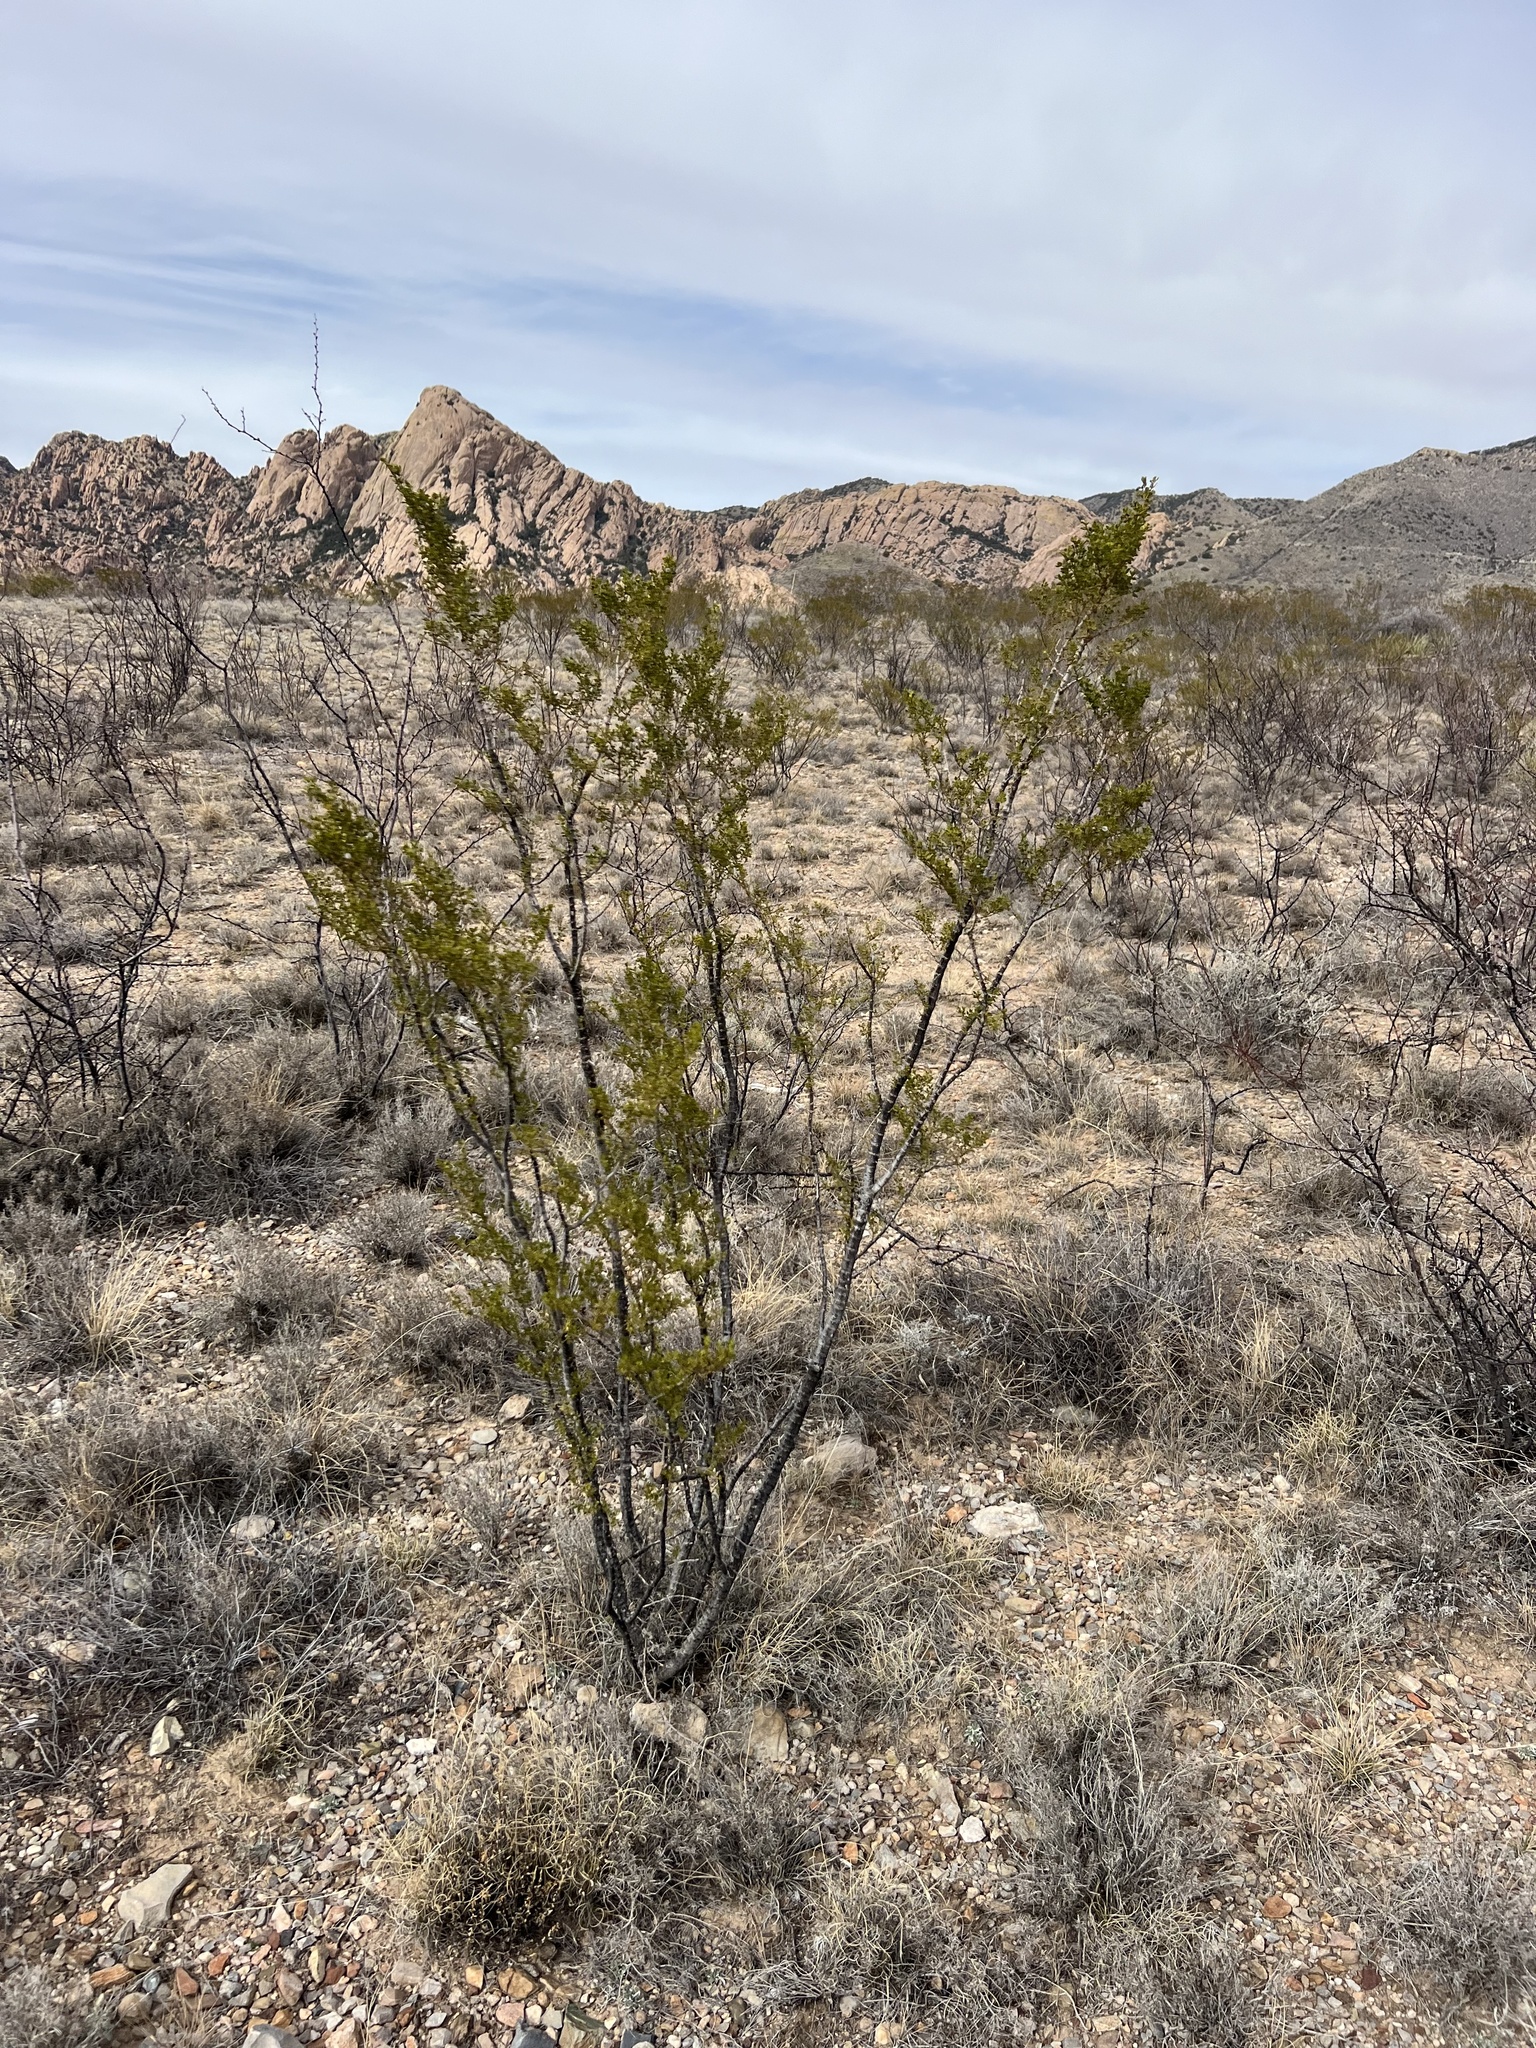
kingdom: Plantae
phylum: Tracheophyta
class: Magnoliopsida
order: Zygophyllales
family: Zygophyllaceae
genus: Larrea
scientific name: Larrea tridentata
